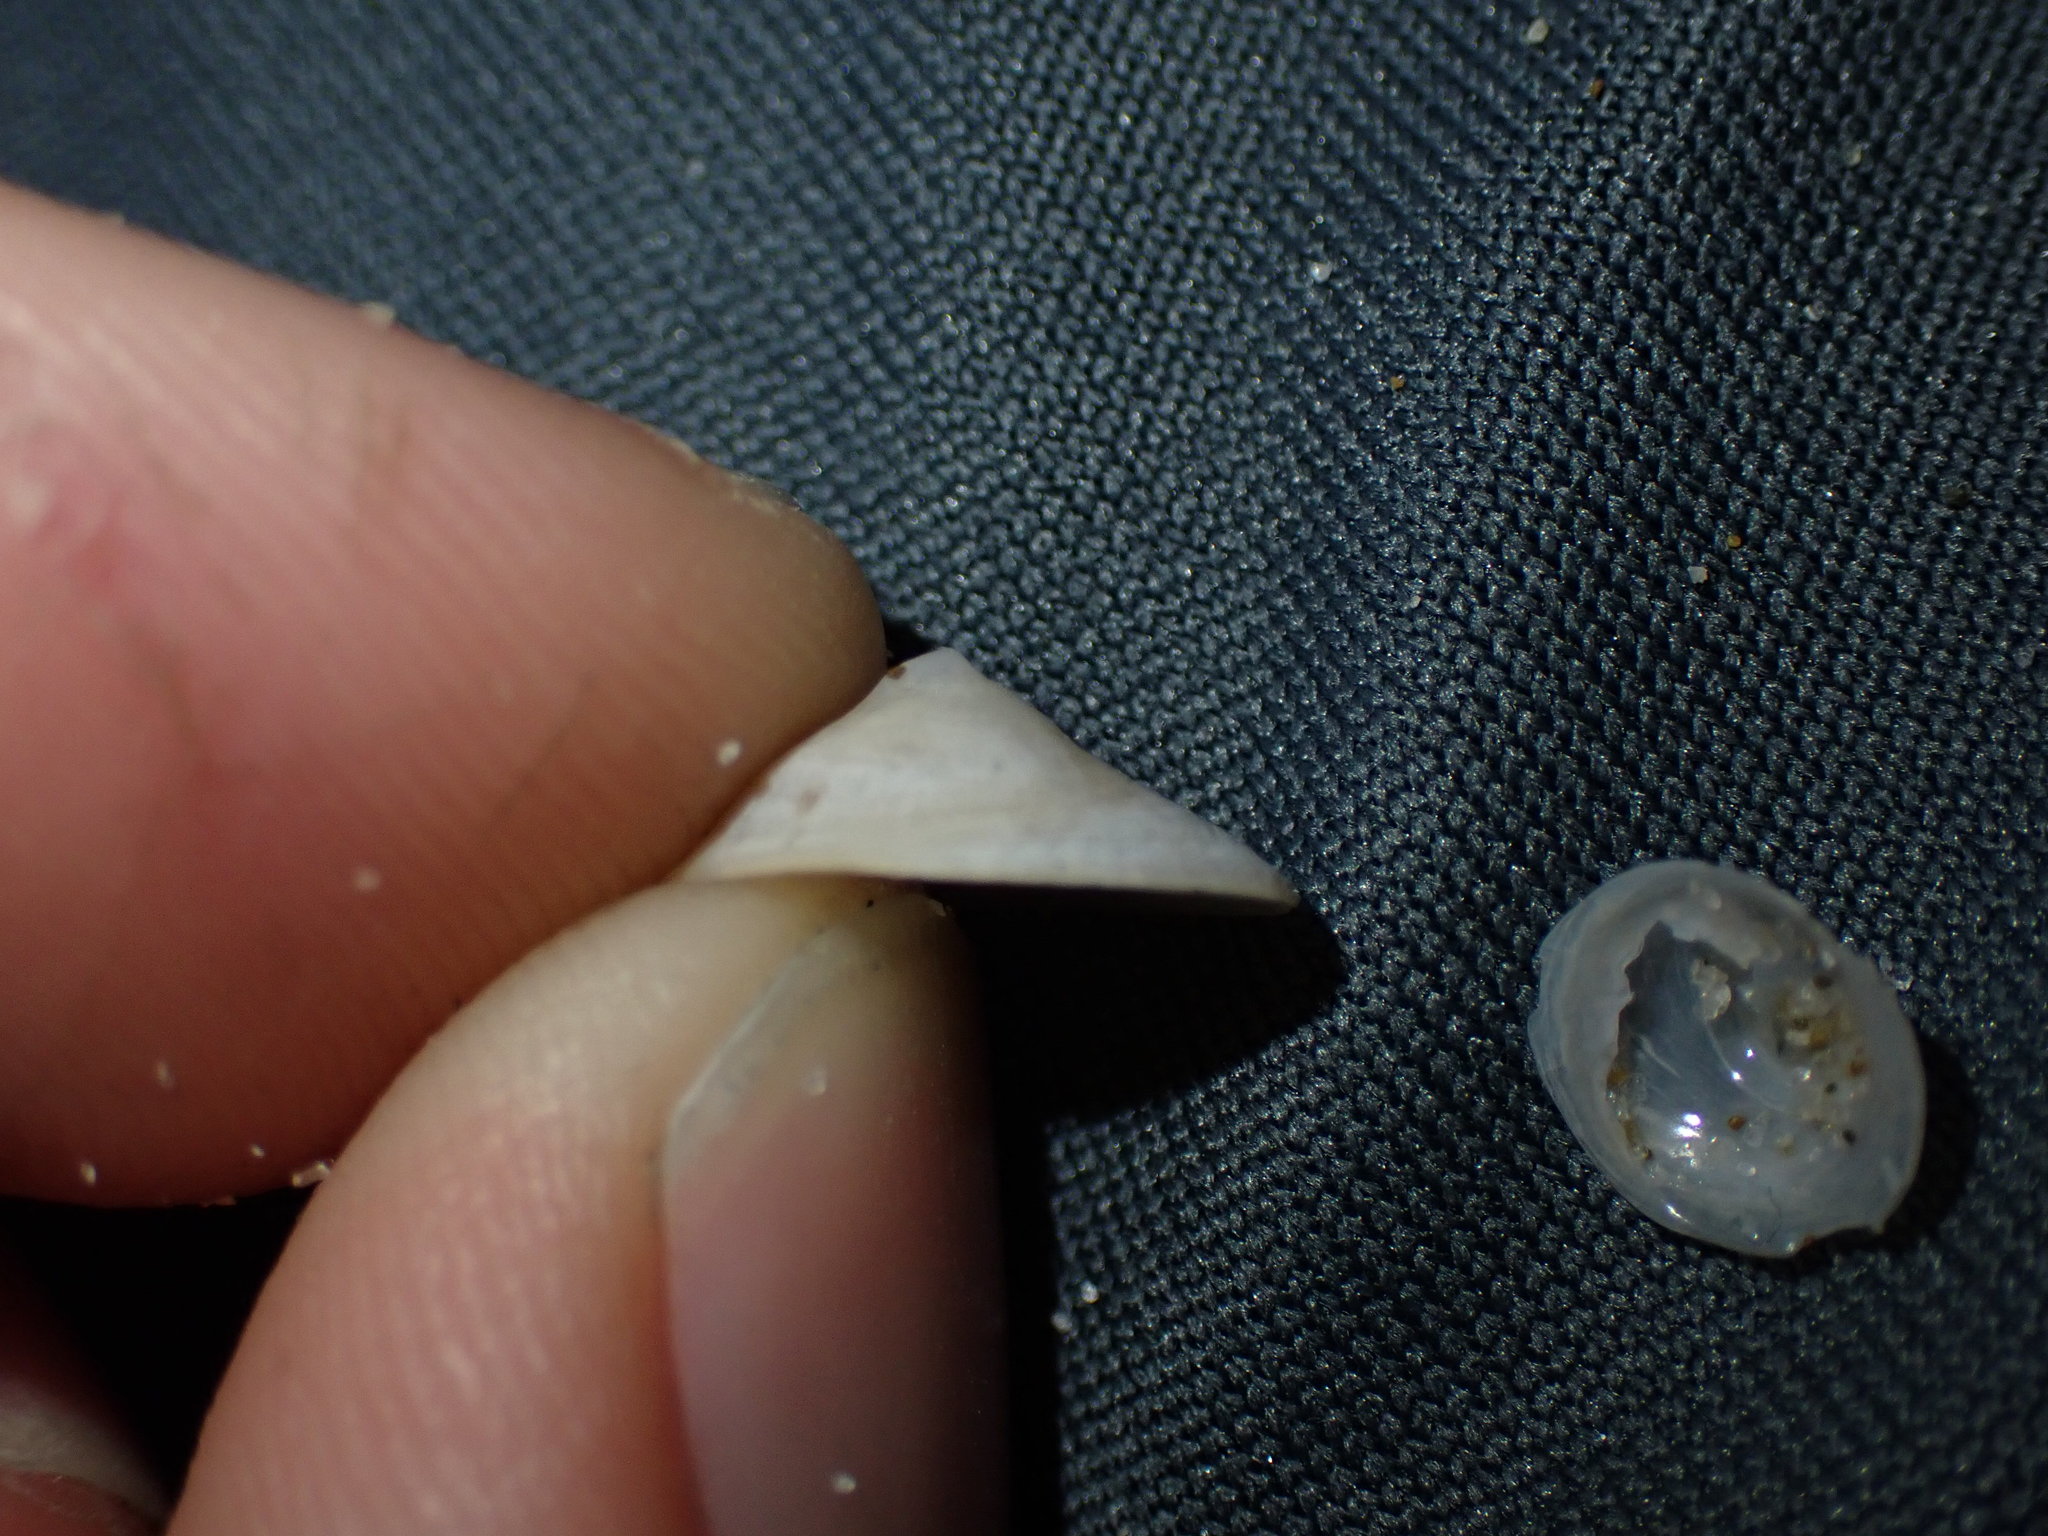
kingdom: Animalia
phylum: Mollusca
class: Gastropoda
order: Littorinimorpha
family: Calyptraeidae
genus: Sigapatella
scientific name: Sigapatella tenuis
